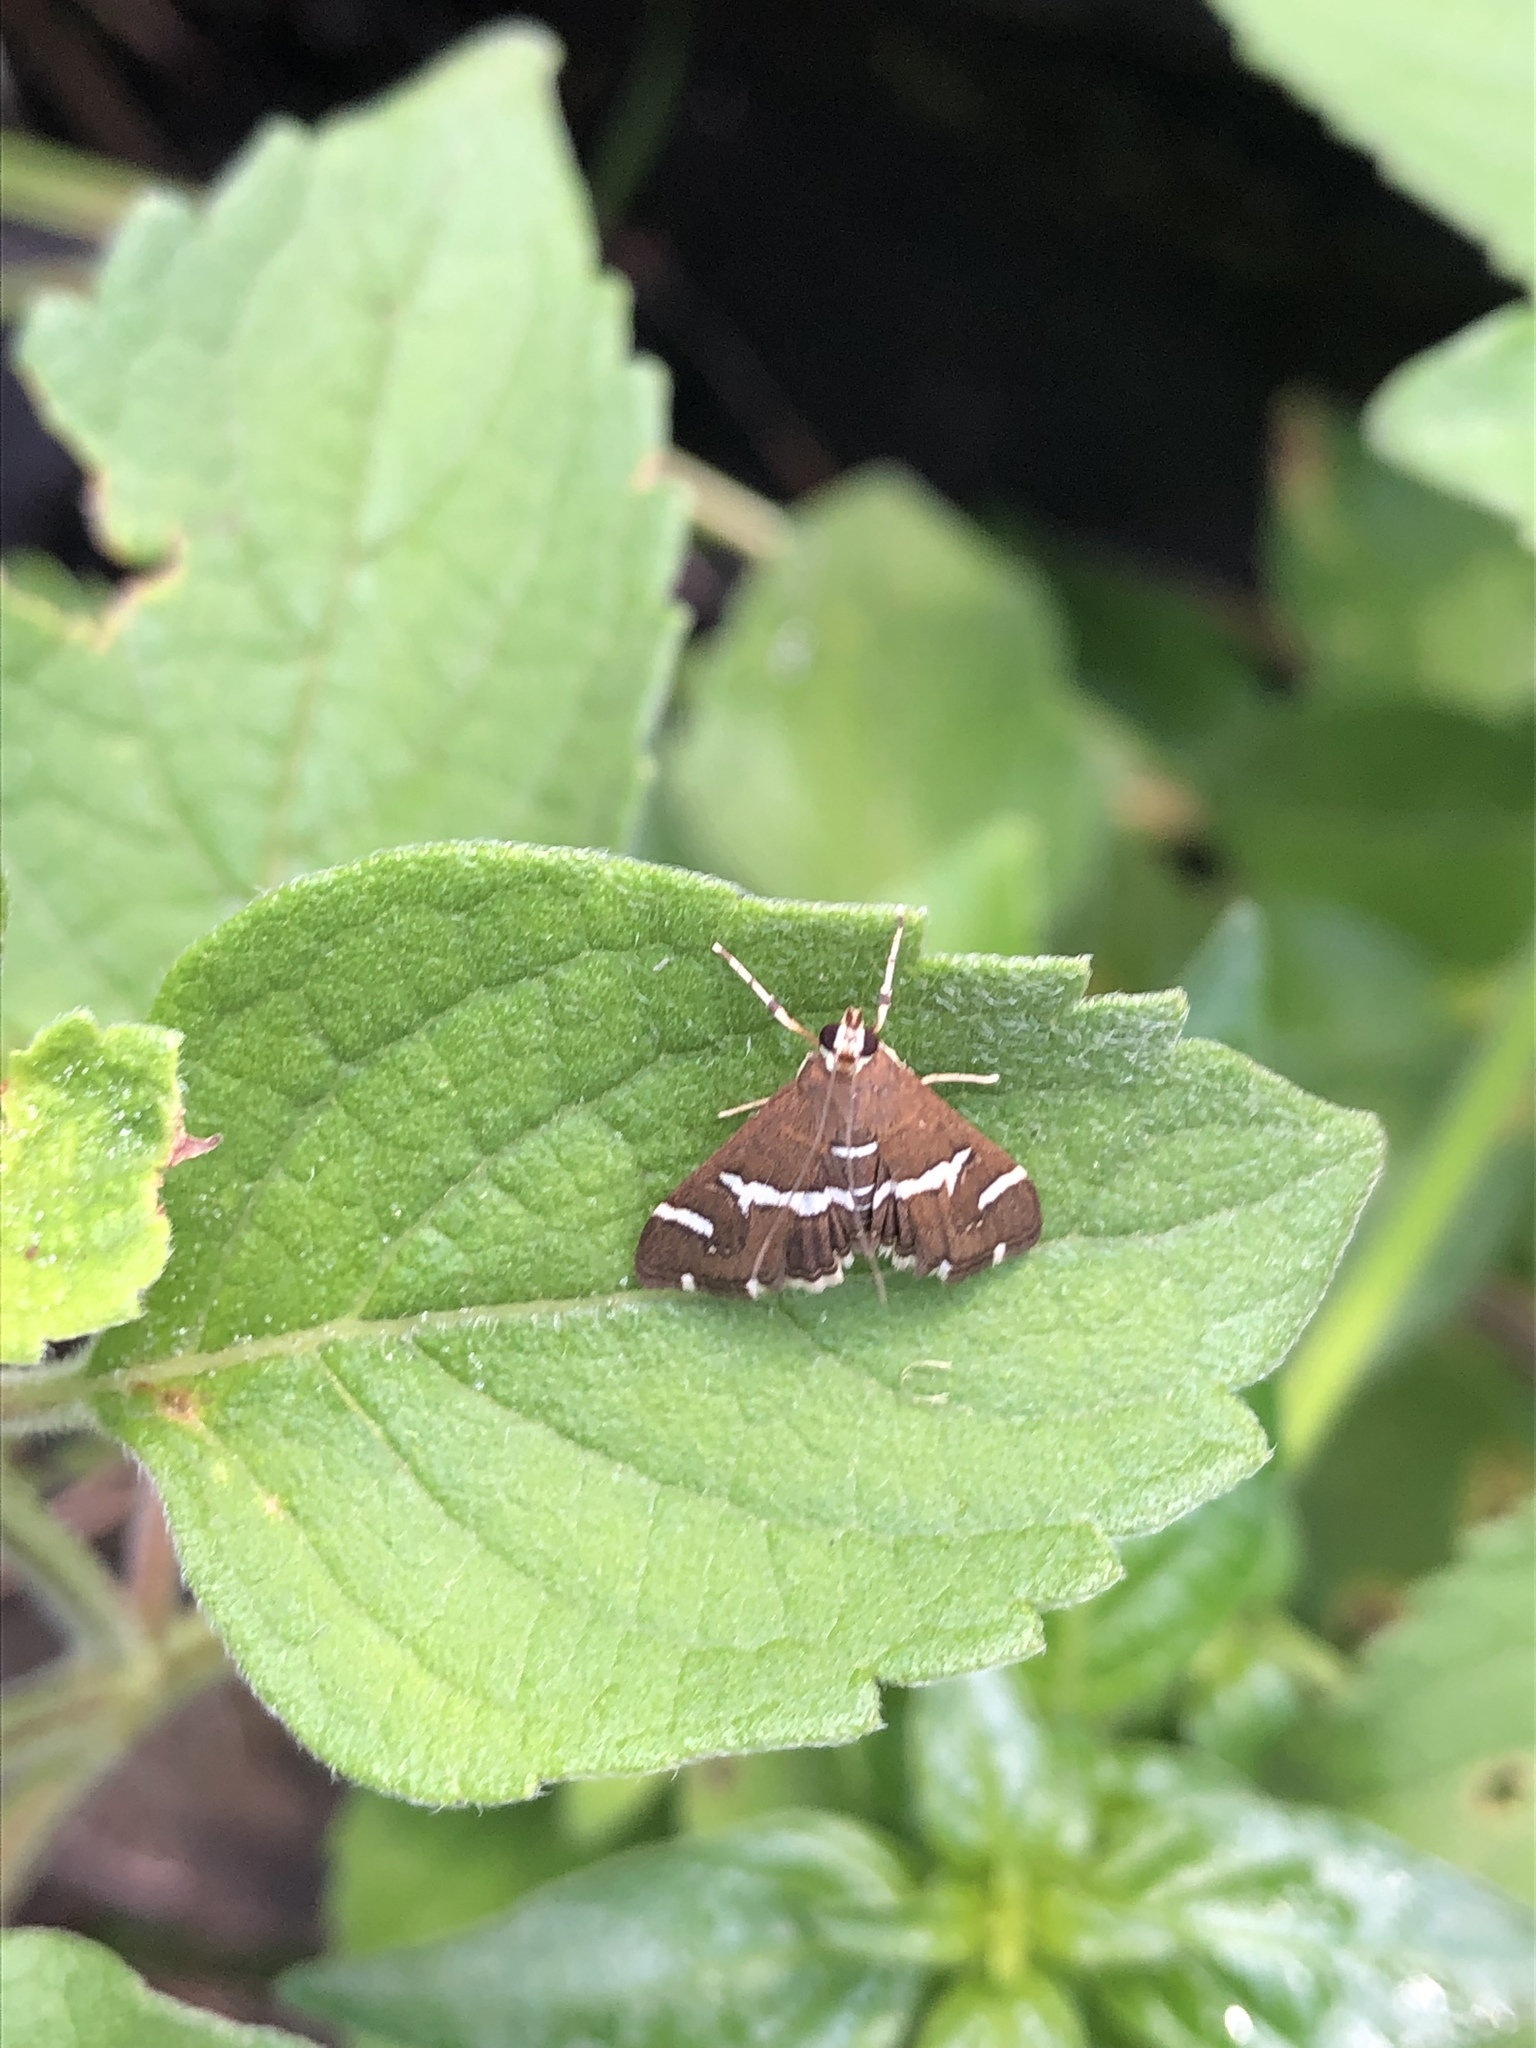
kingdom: Animalia
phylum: Arthropoda
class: Insecta
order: Lepidoptera
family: Crambidae
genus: Spoladea
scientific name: Spoladea recurvalis
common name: Beet webworm moth
